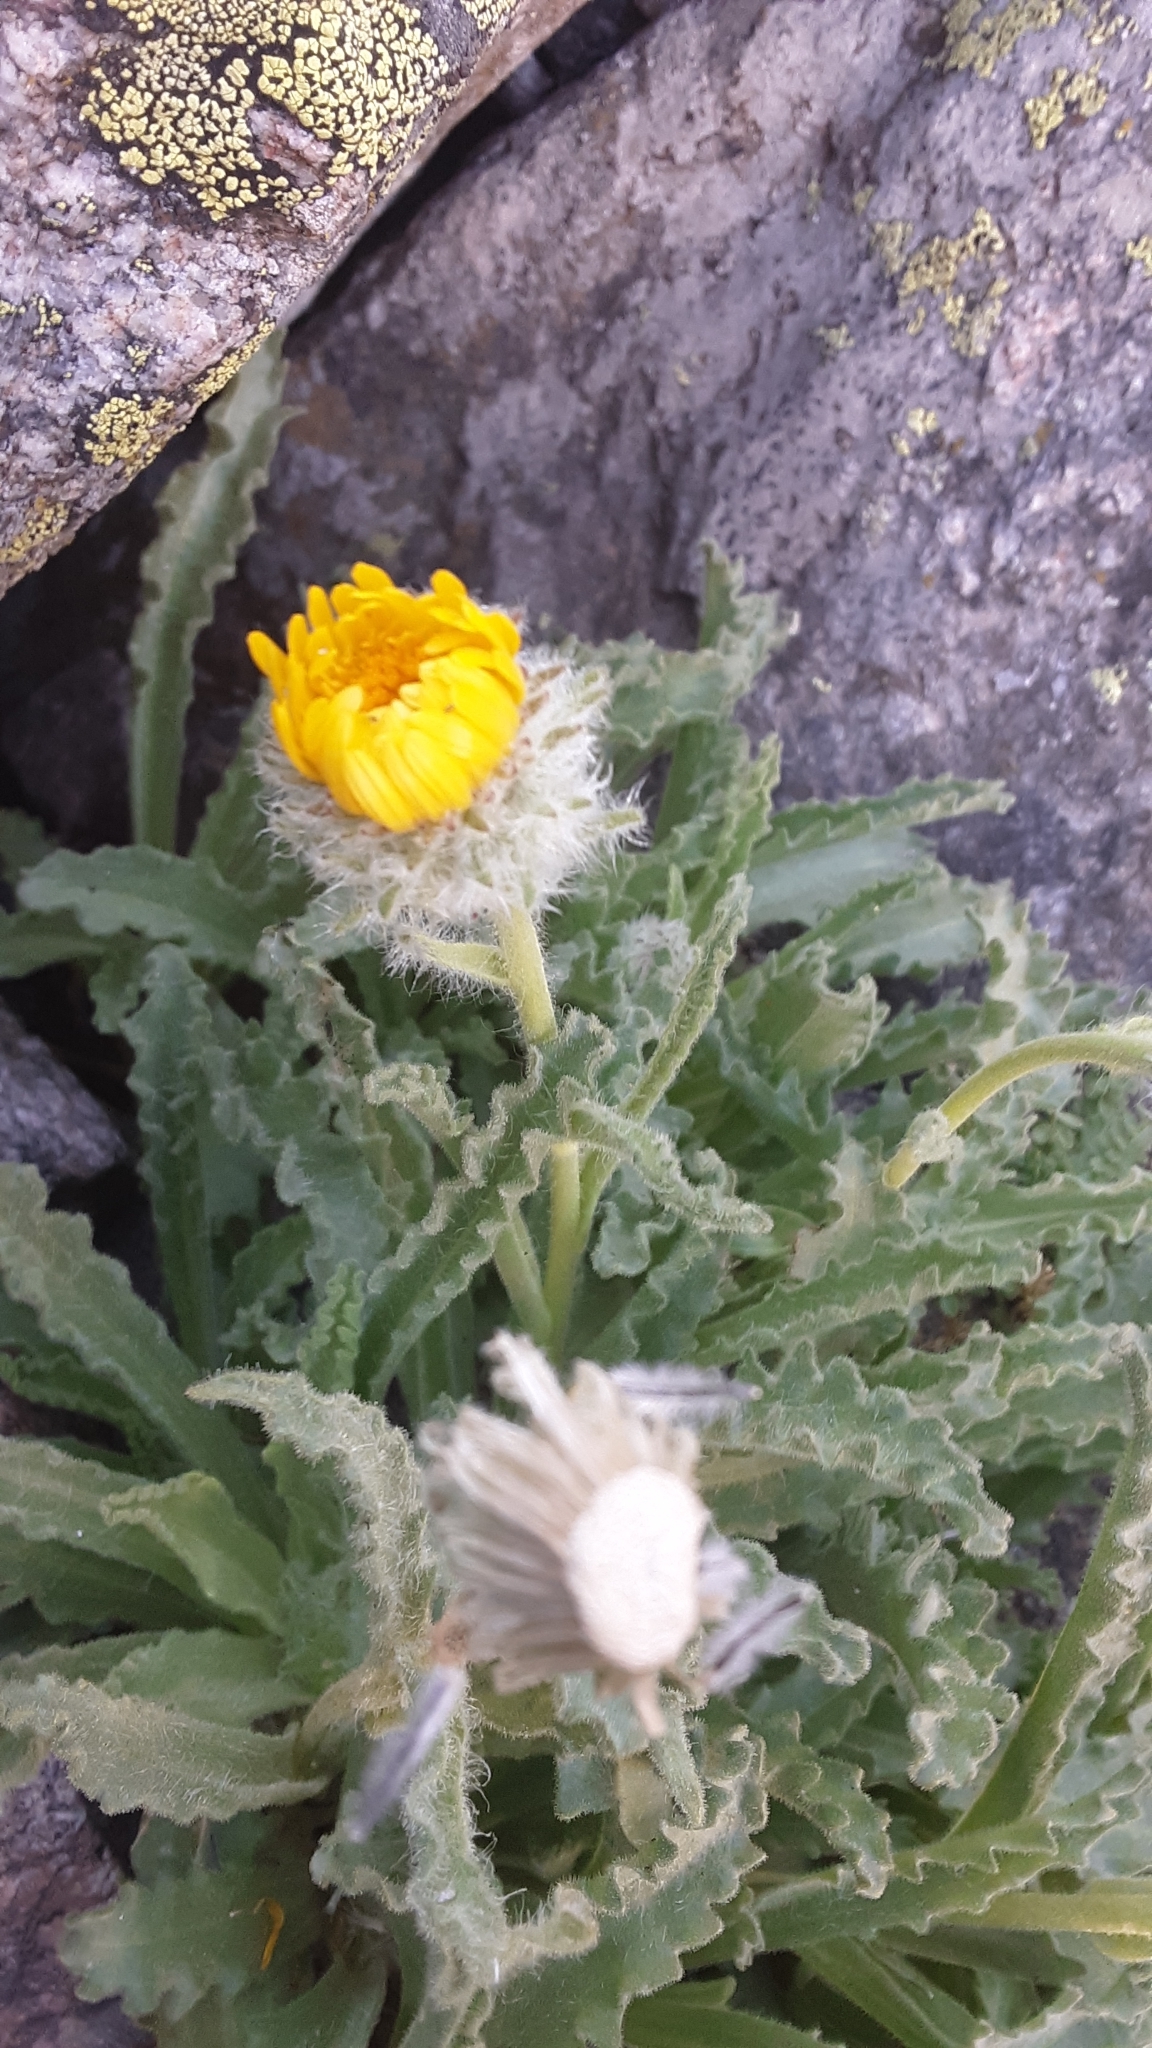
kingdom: Plantae
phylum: Tracheophyta
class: Magnoliopsida
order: Asterales
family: Asteraceae
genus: Hulsea
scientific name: Hulsea algida
